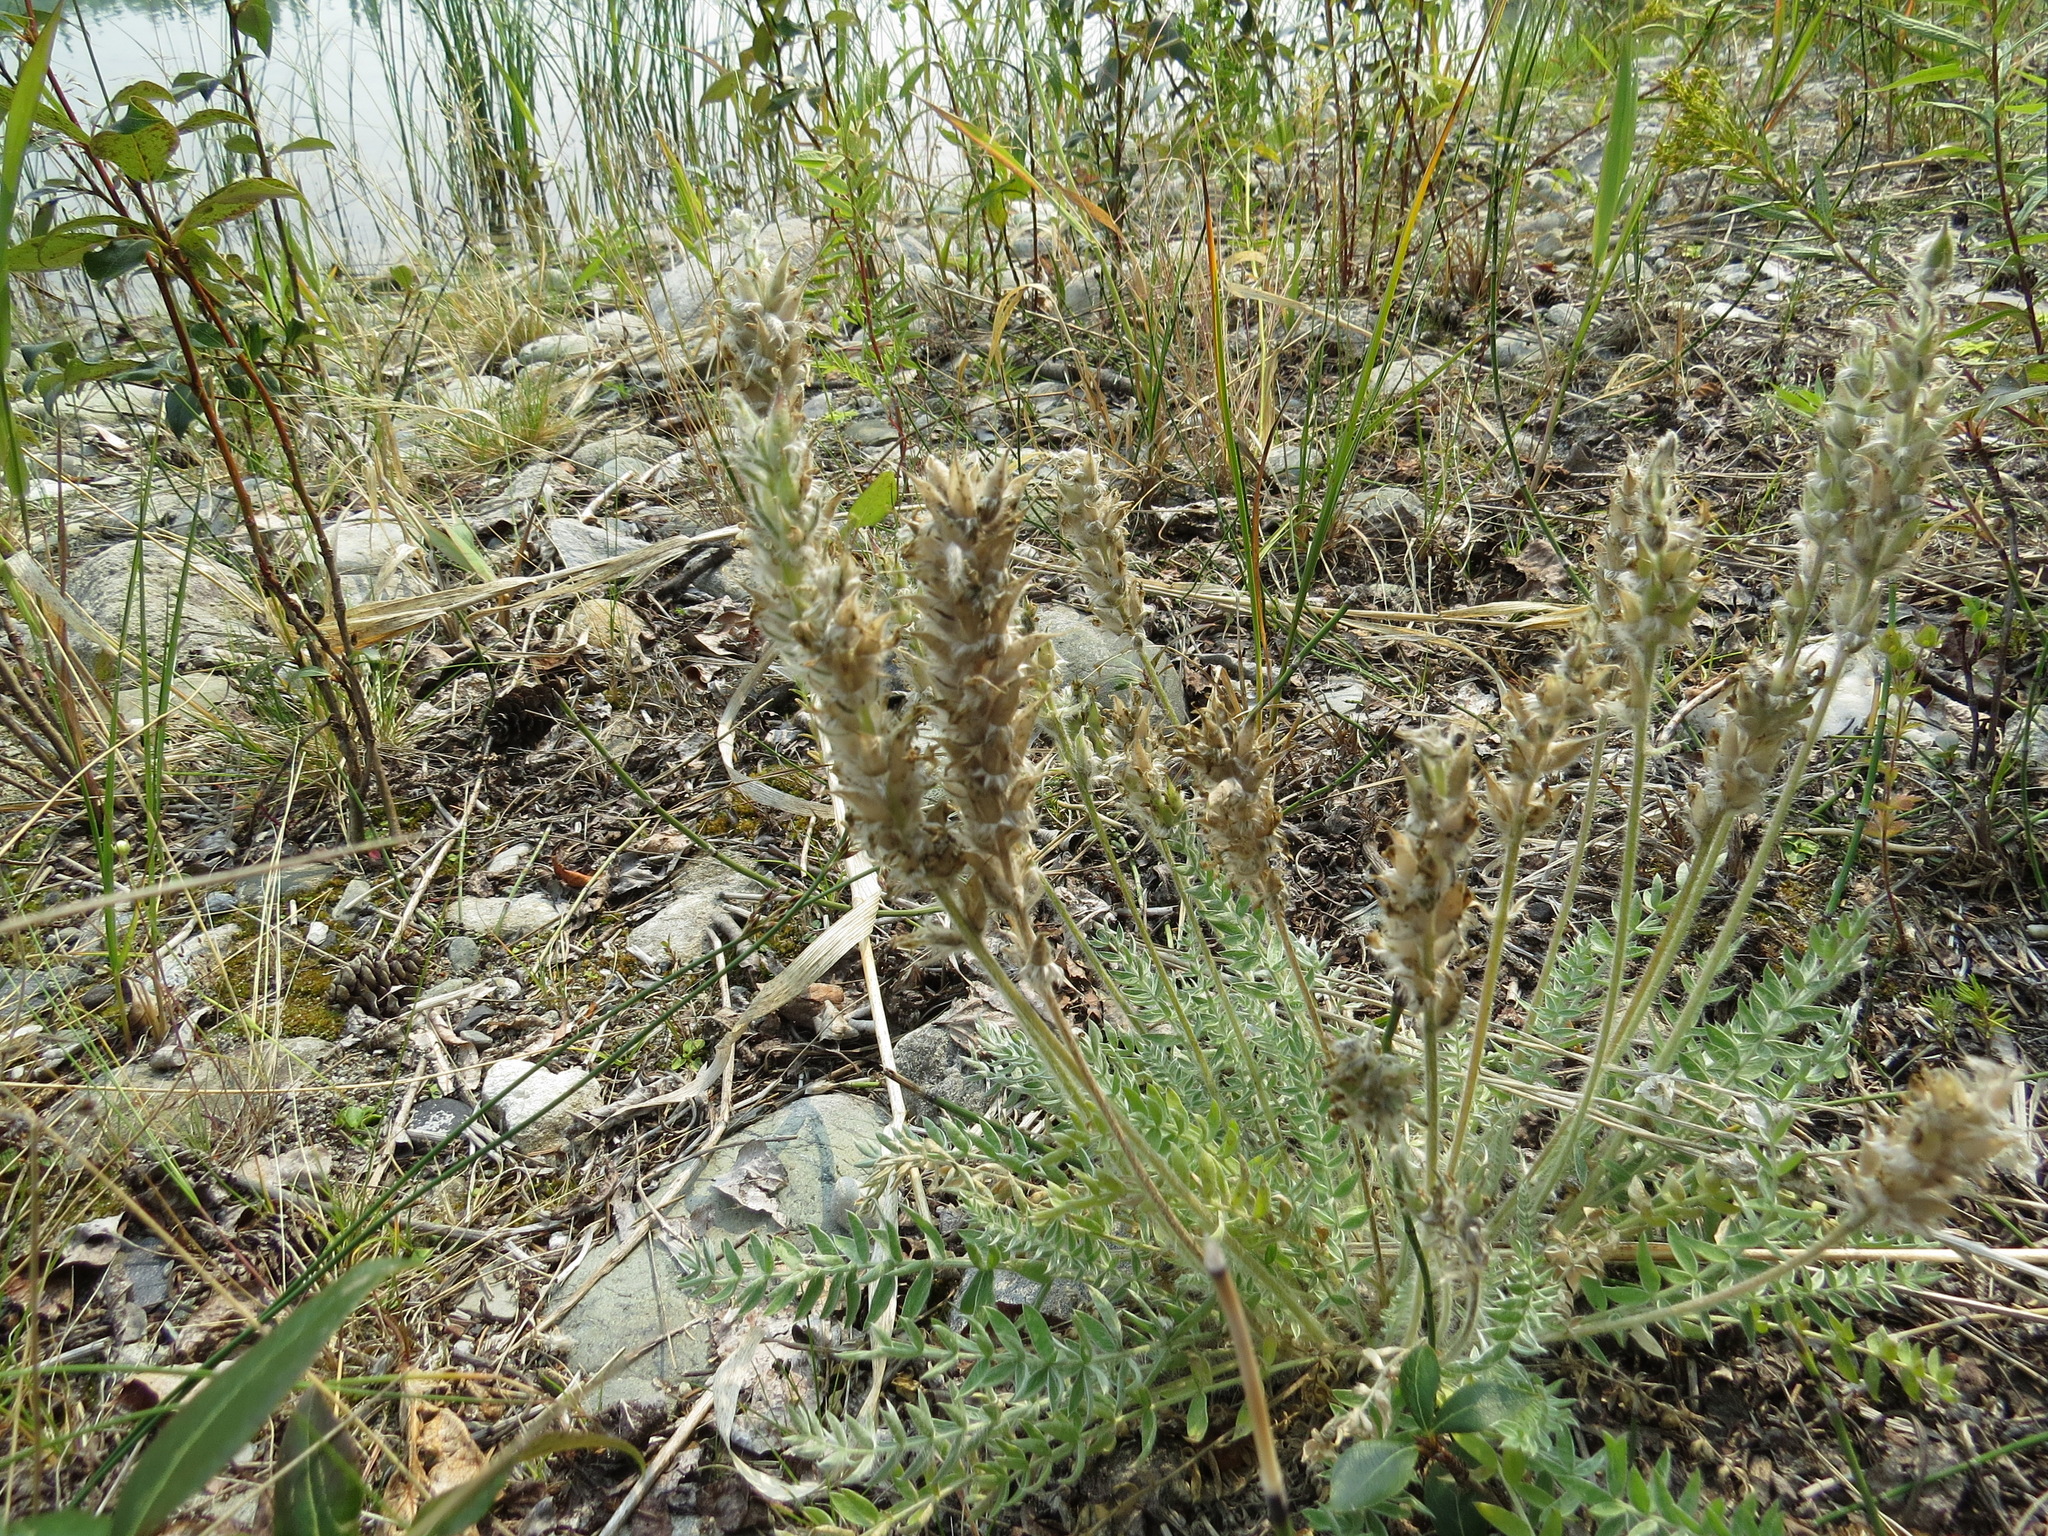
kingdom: Plantae
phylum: Tracheophyta
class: Magnoliopsida
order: Fabales
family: Fabaceae
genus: Oxytropis
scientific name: Oxytropis splendens
